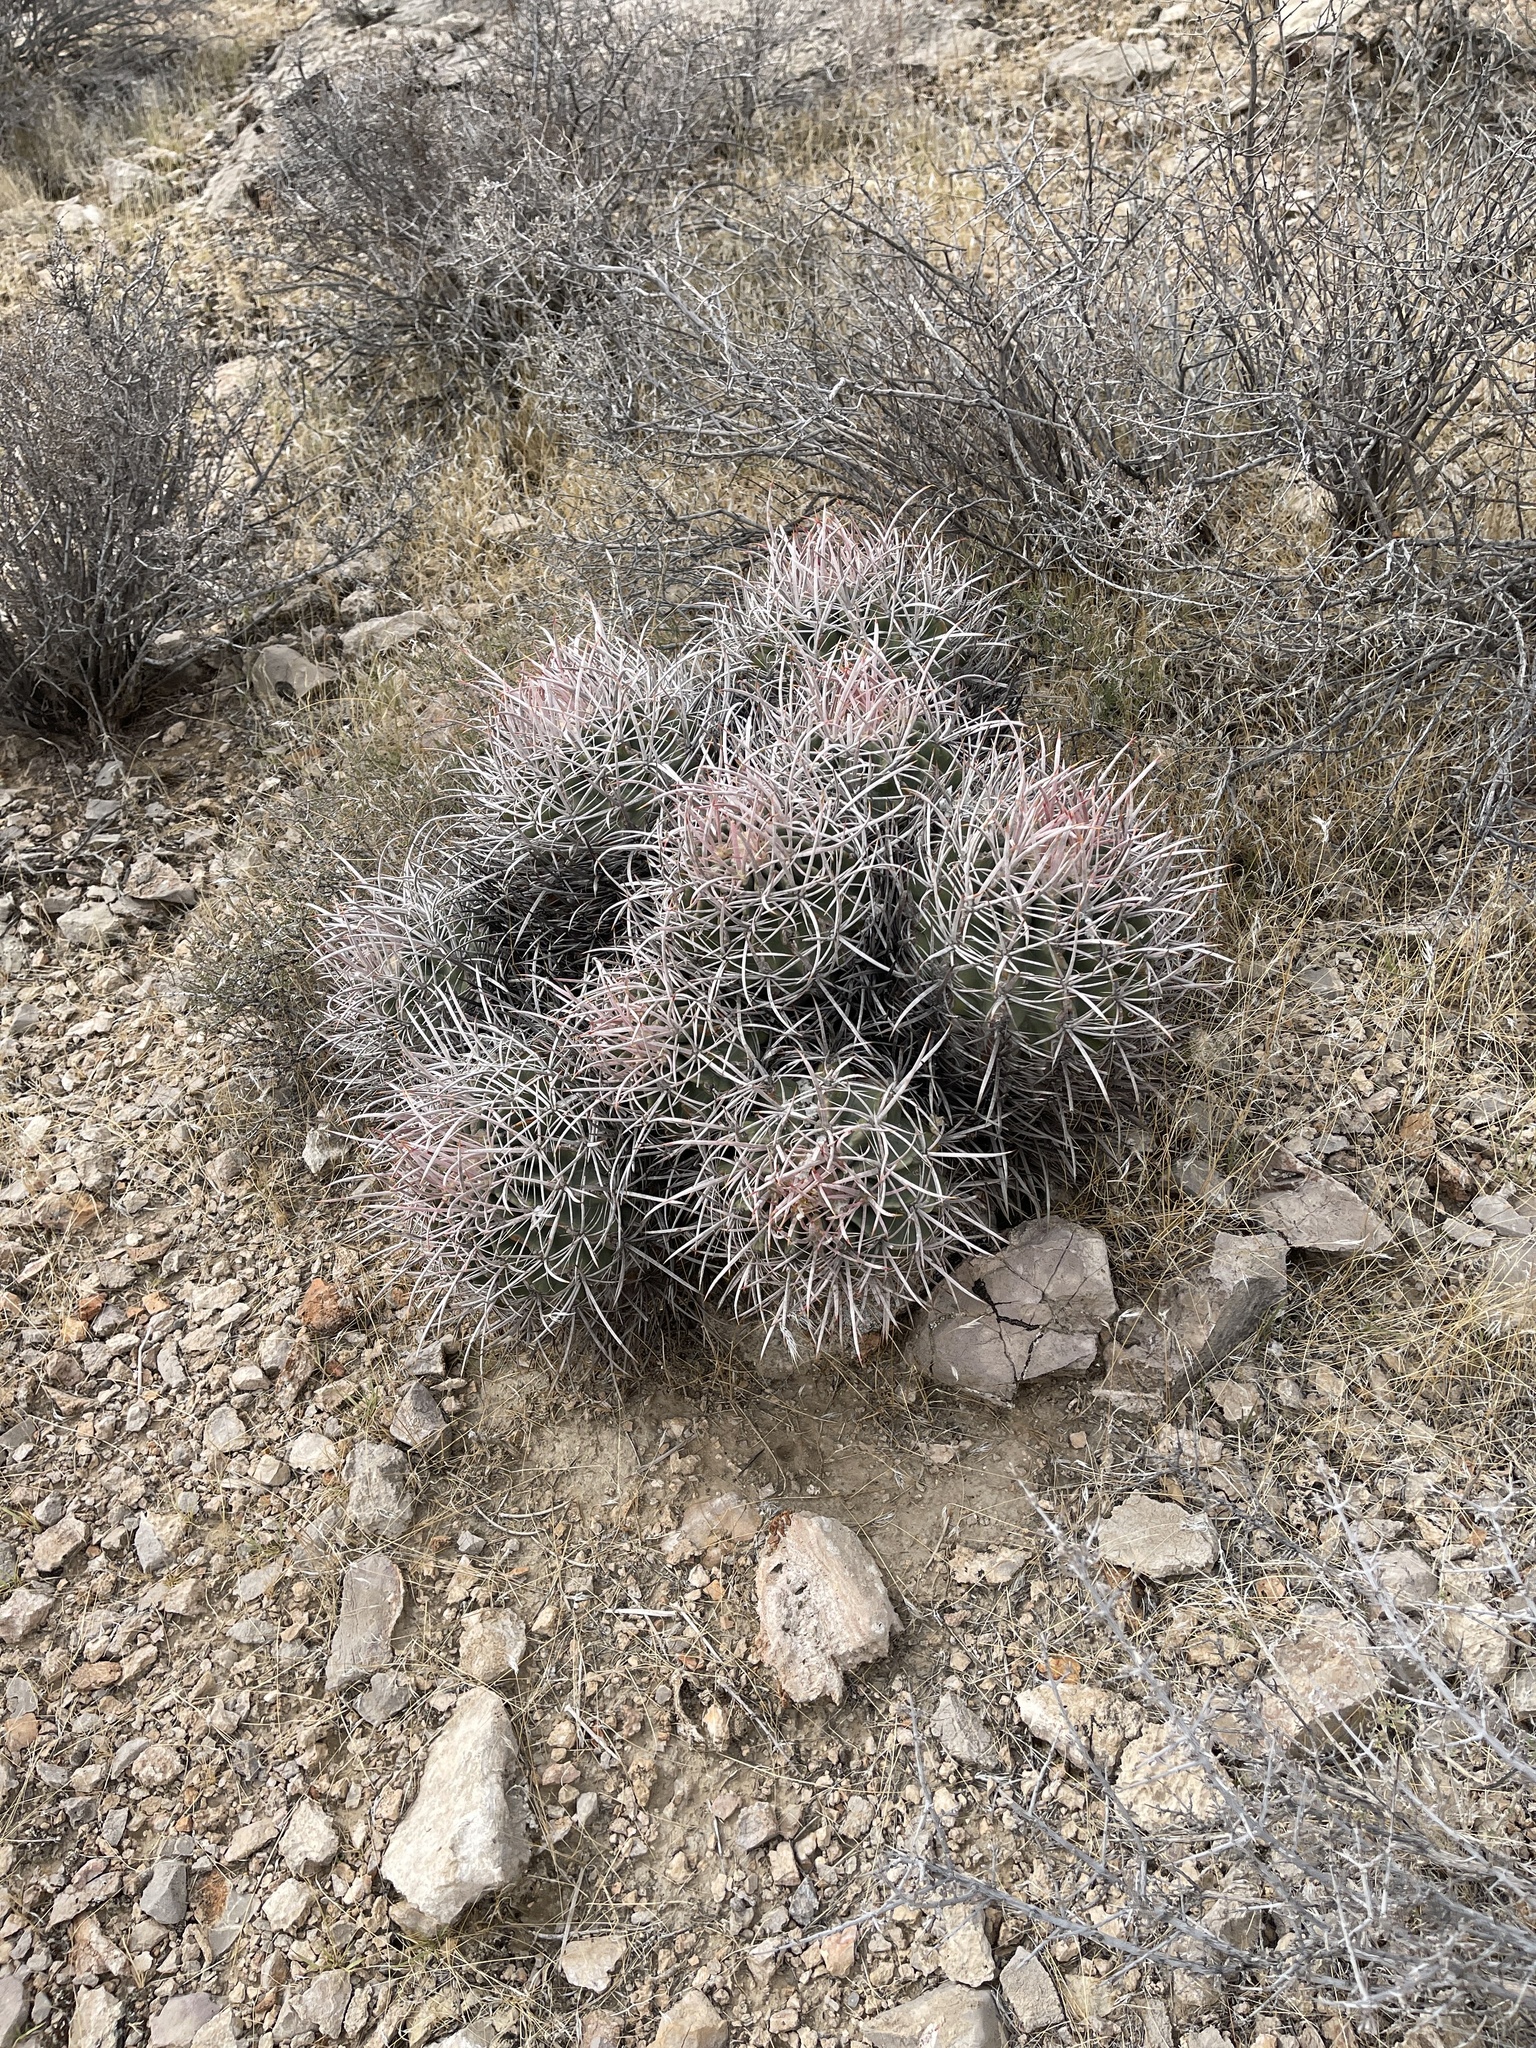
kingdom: Plantae
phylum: Tracheophyta
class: Magnoliopsida
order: Caryophyllales
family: Cactaceae
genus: Echinocactus
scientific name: Echinocactus polycephalus
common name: Cottontop cactus
